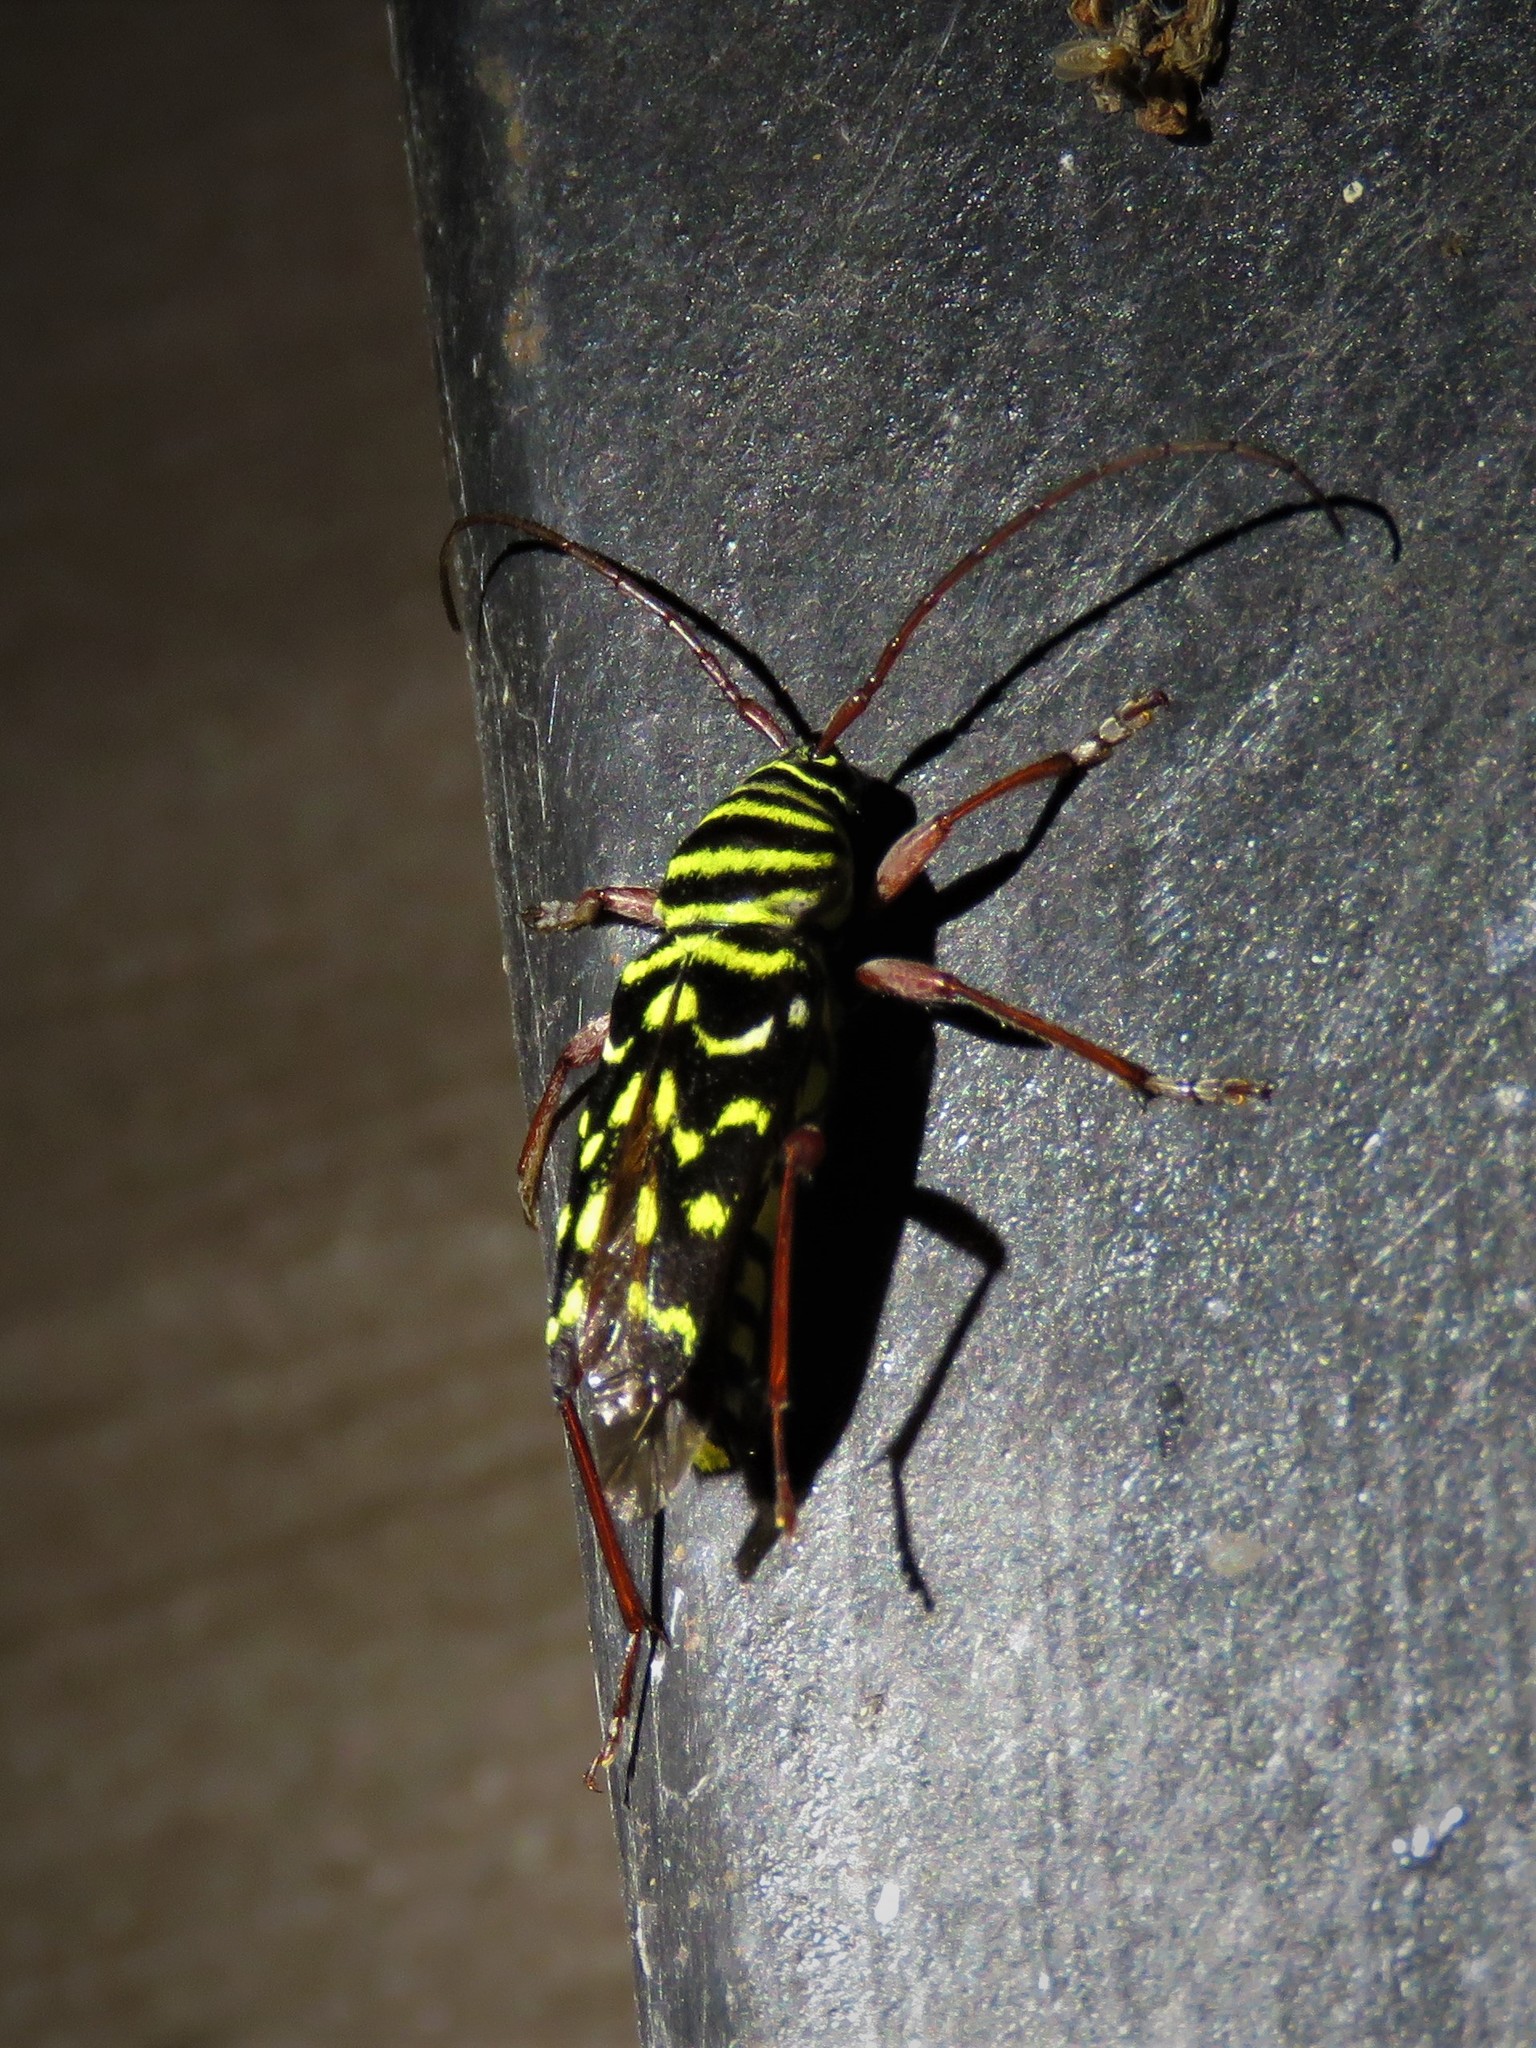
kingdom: Animalia
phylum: Arthropoda
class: Insecta
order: Coleoptera
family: Cerambycidae
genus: Placosternus
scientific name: Placosternus difficilis
